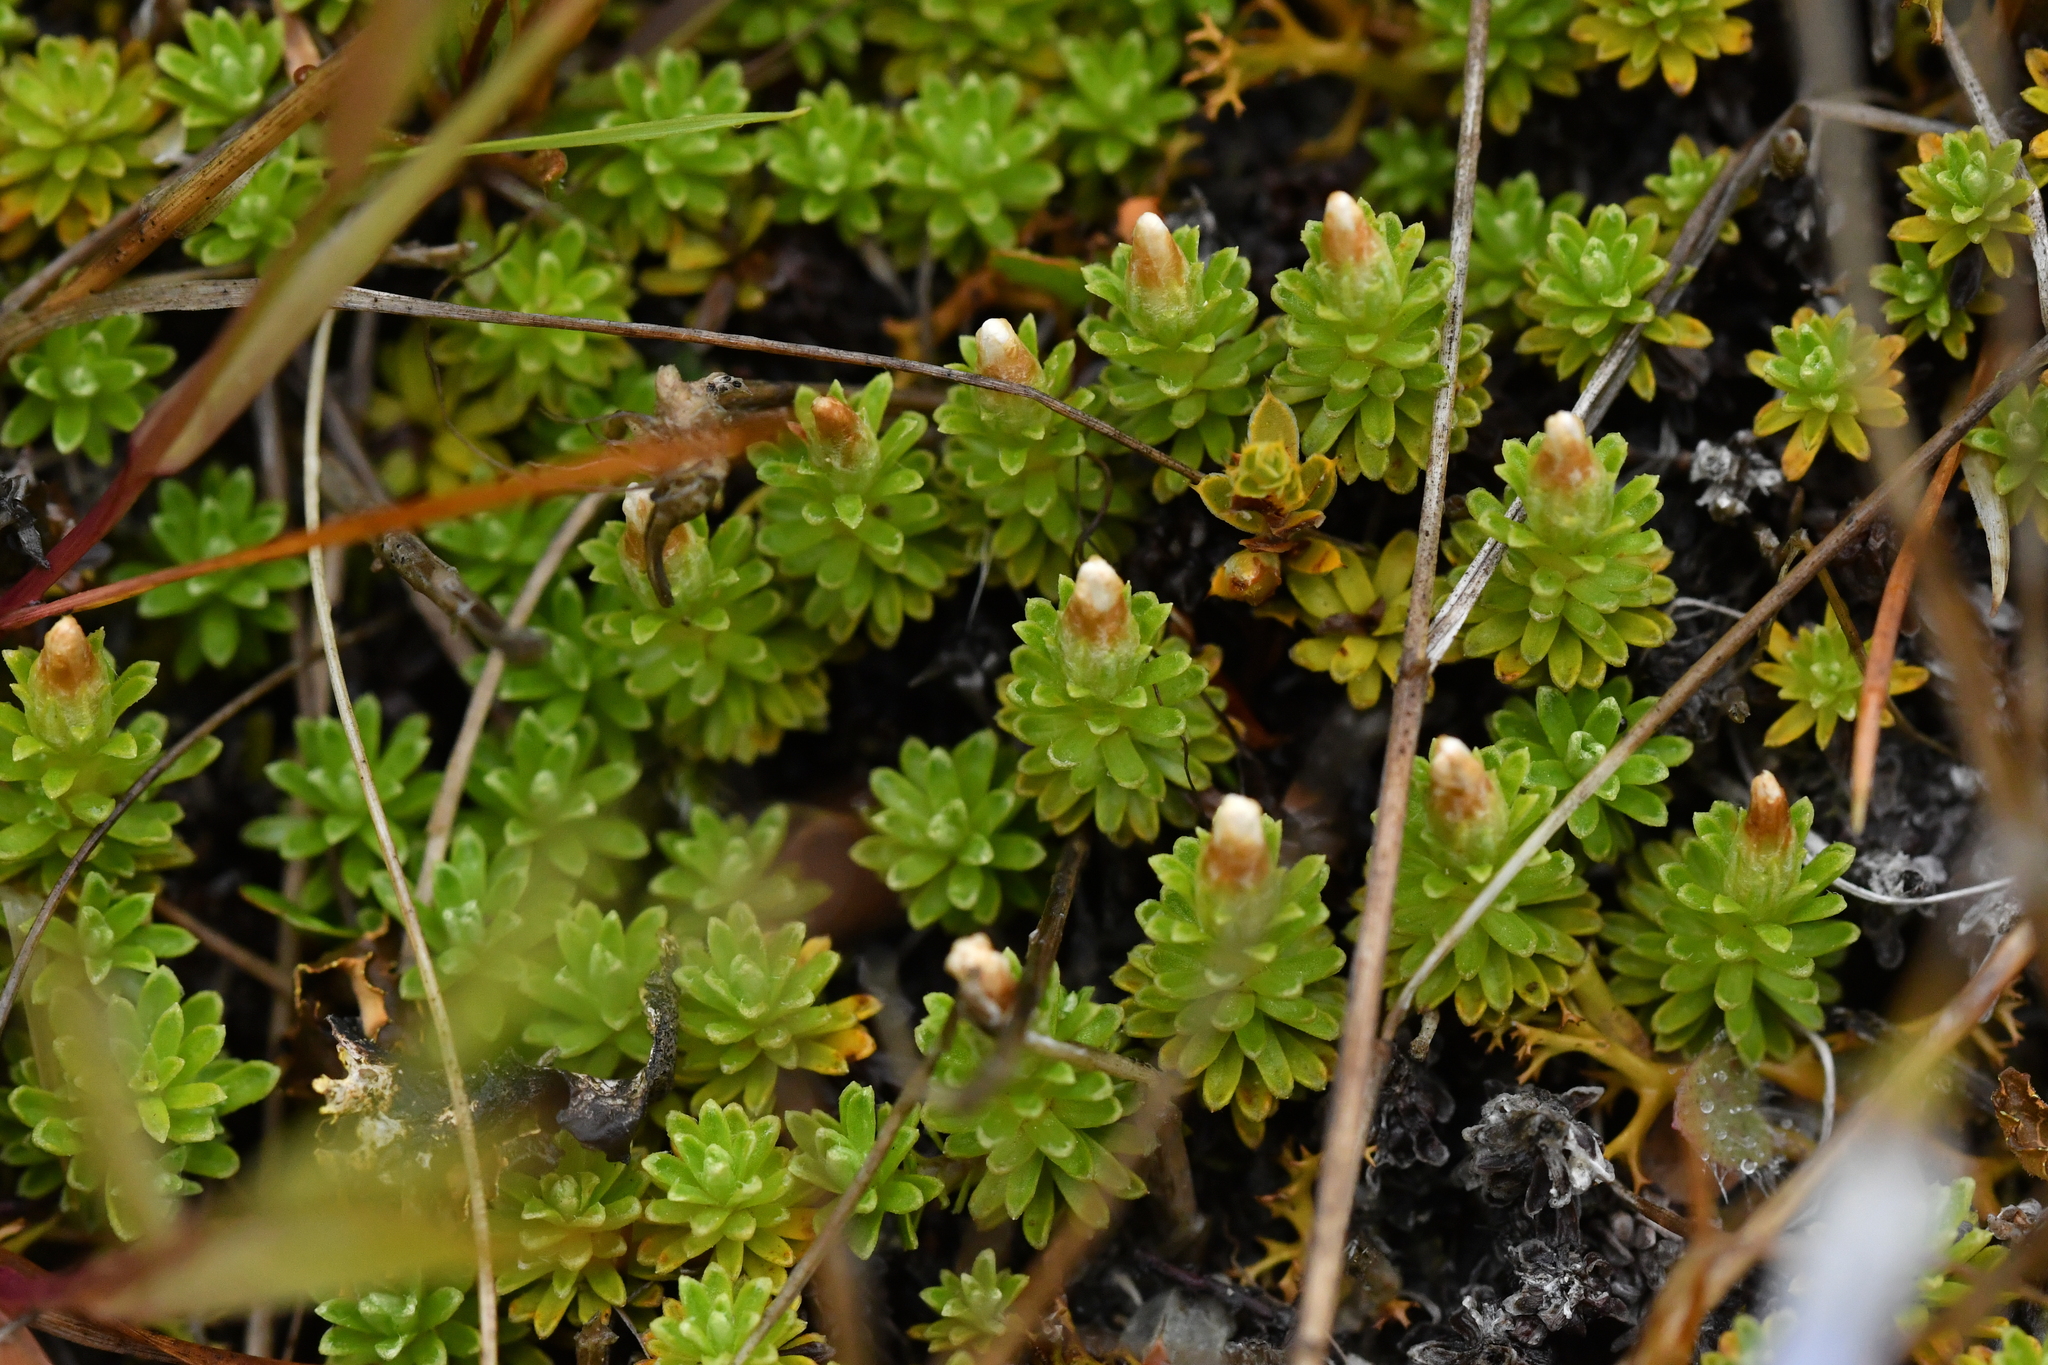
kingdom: Plantae
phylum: Tracheophyta
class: Magnoliopsida
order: Asterales
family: Asteraceae
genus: Raoulia
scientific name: Raoulia glabra
